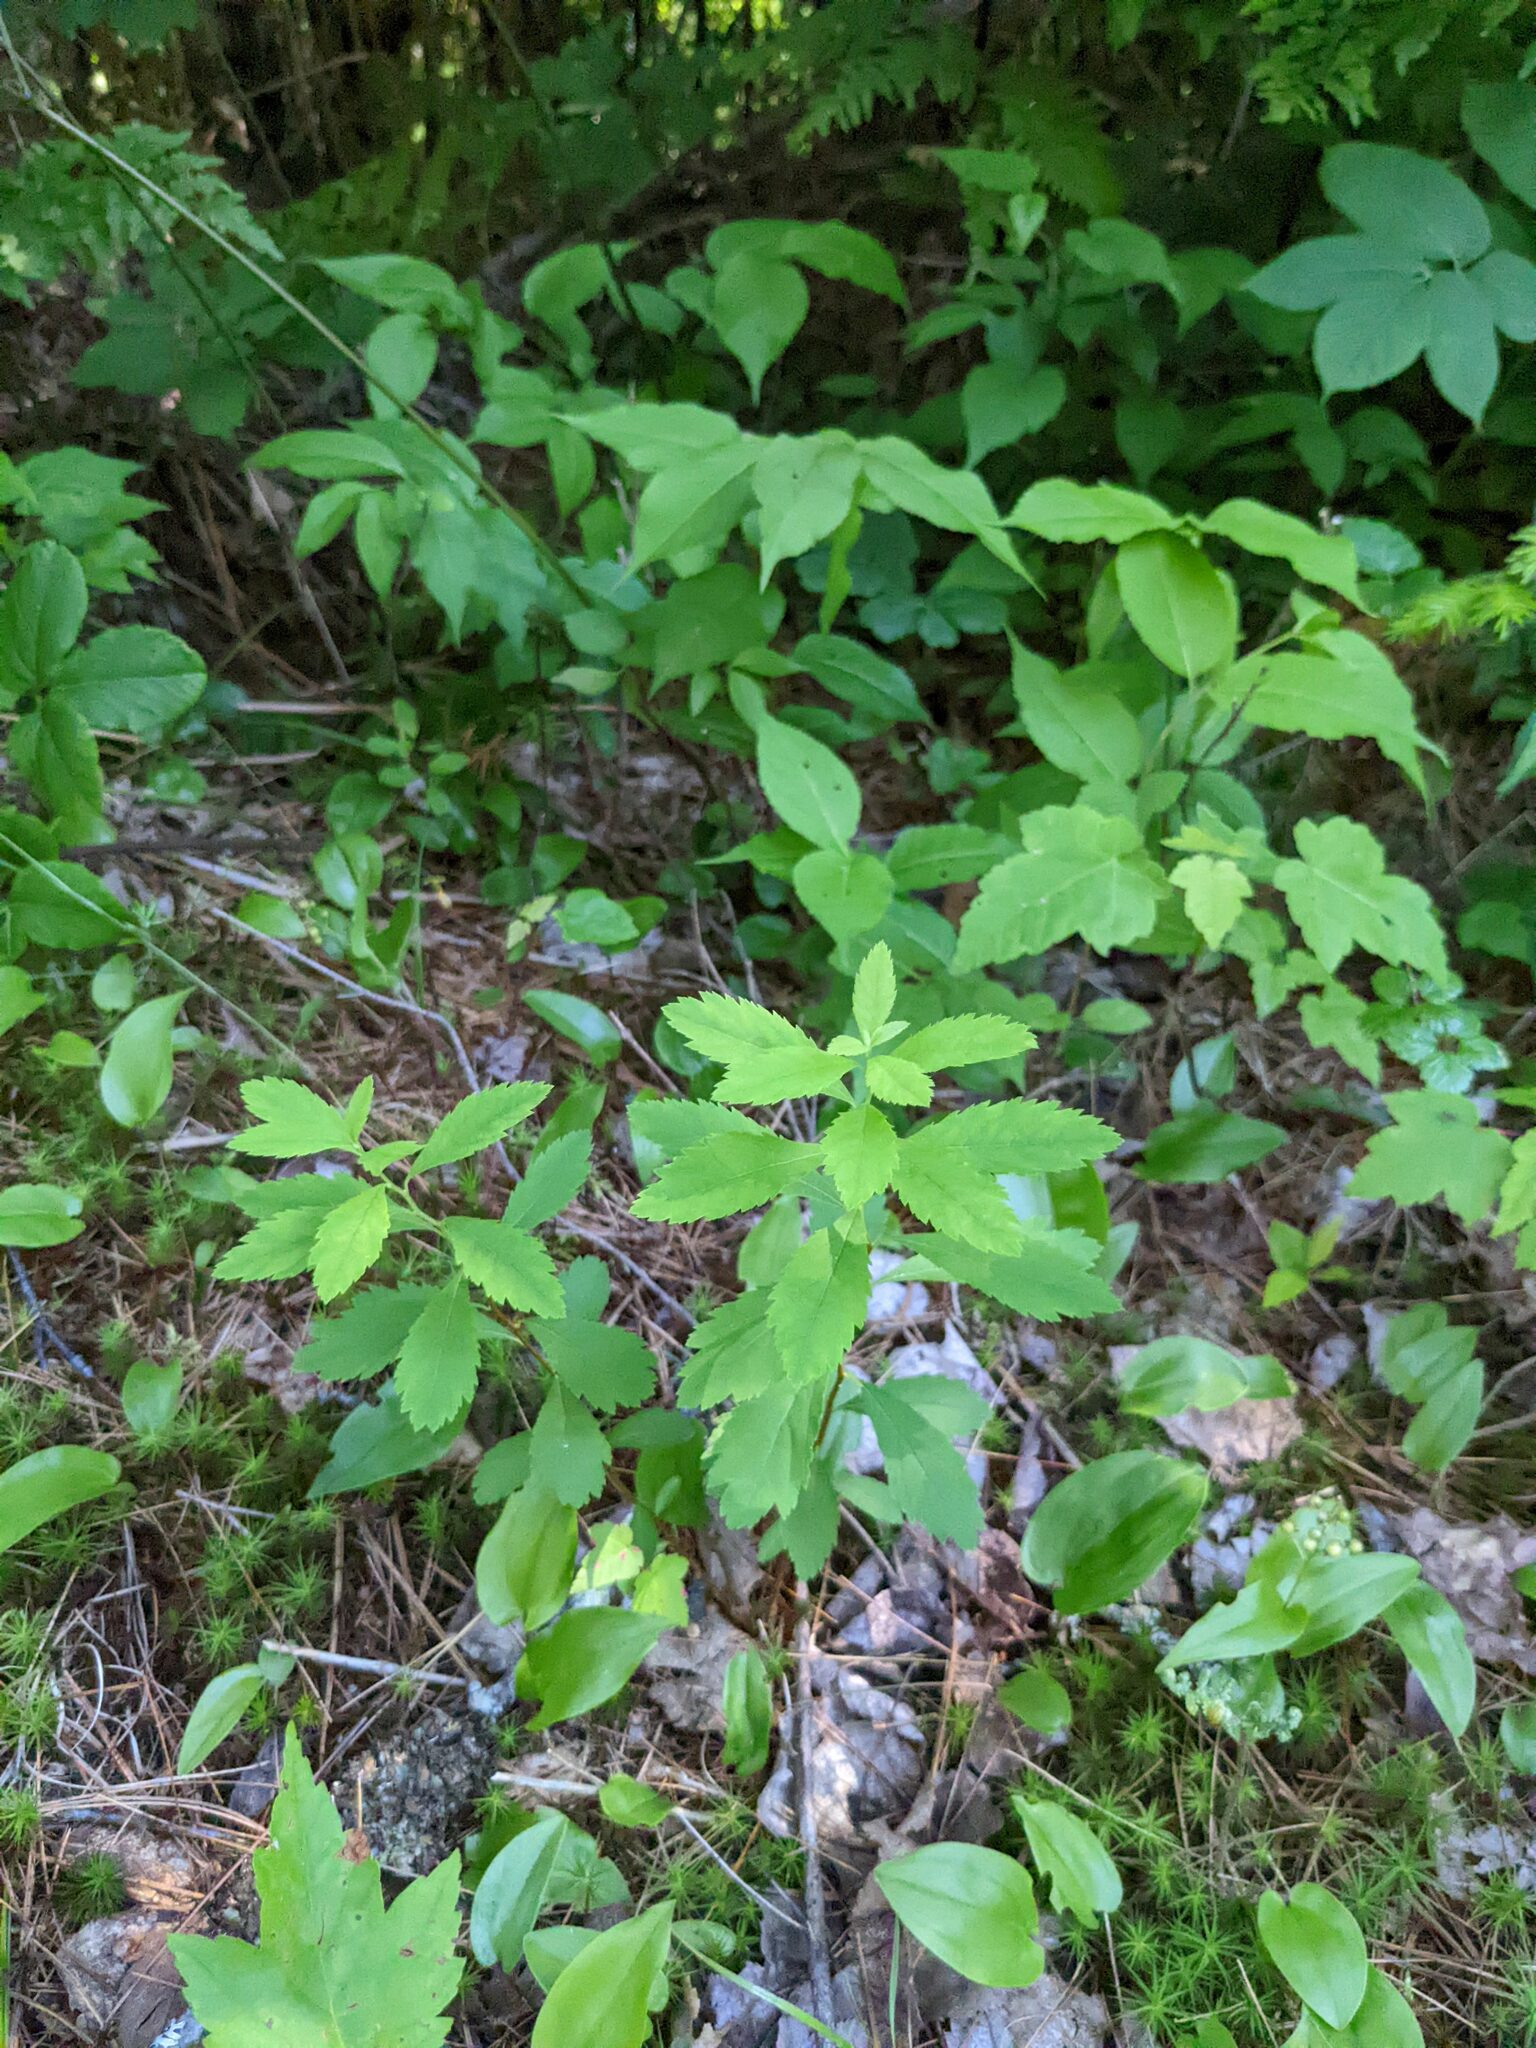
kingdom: Plantae
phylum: Tracheophyta
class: Magnoliopsida
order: Rosales
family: Rosaceae
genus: Spiraea
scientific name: Spiraea alba
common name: Pale bridewort
